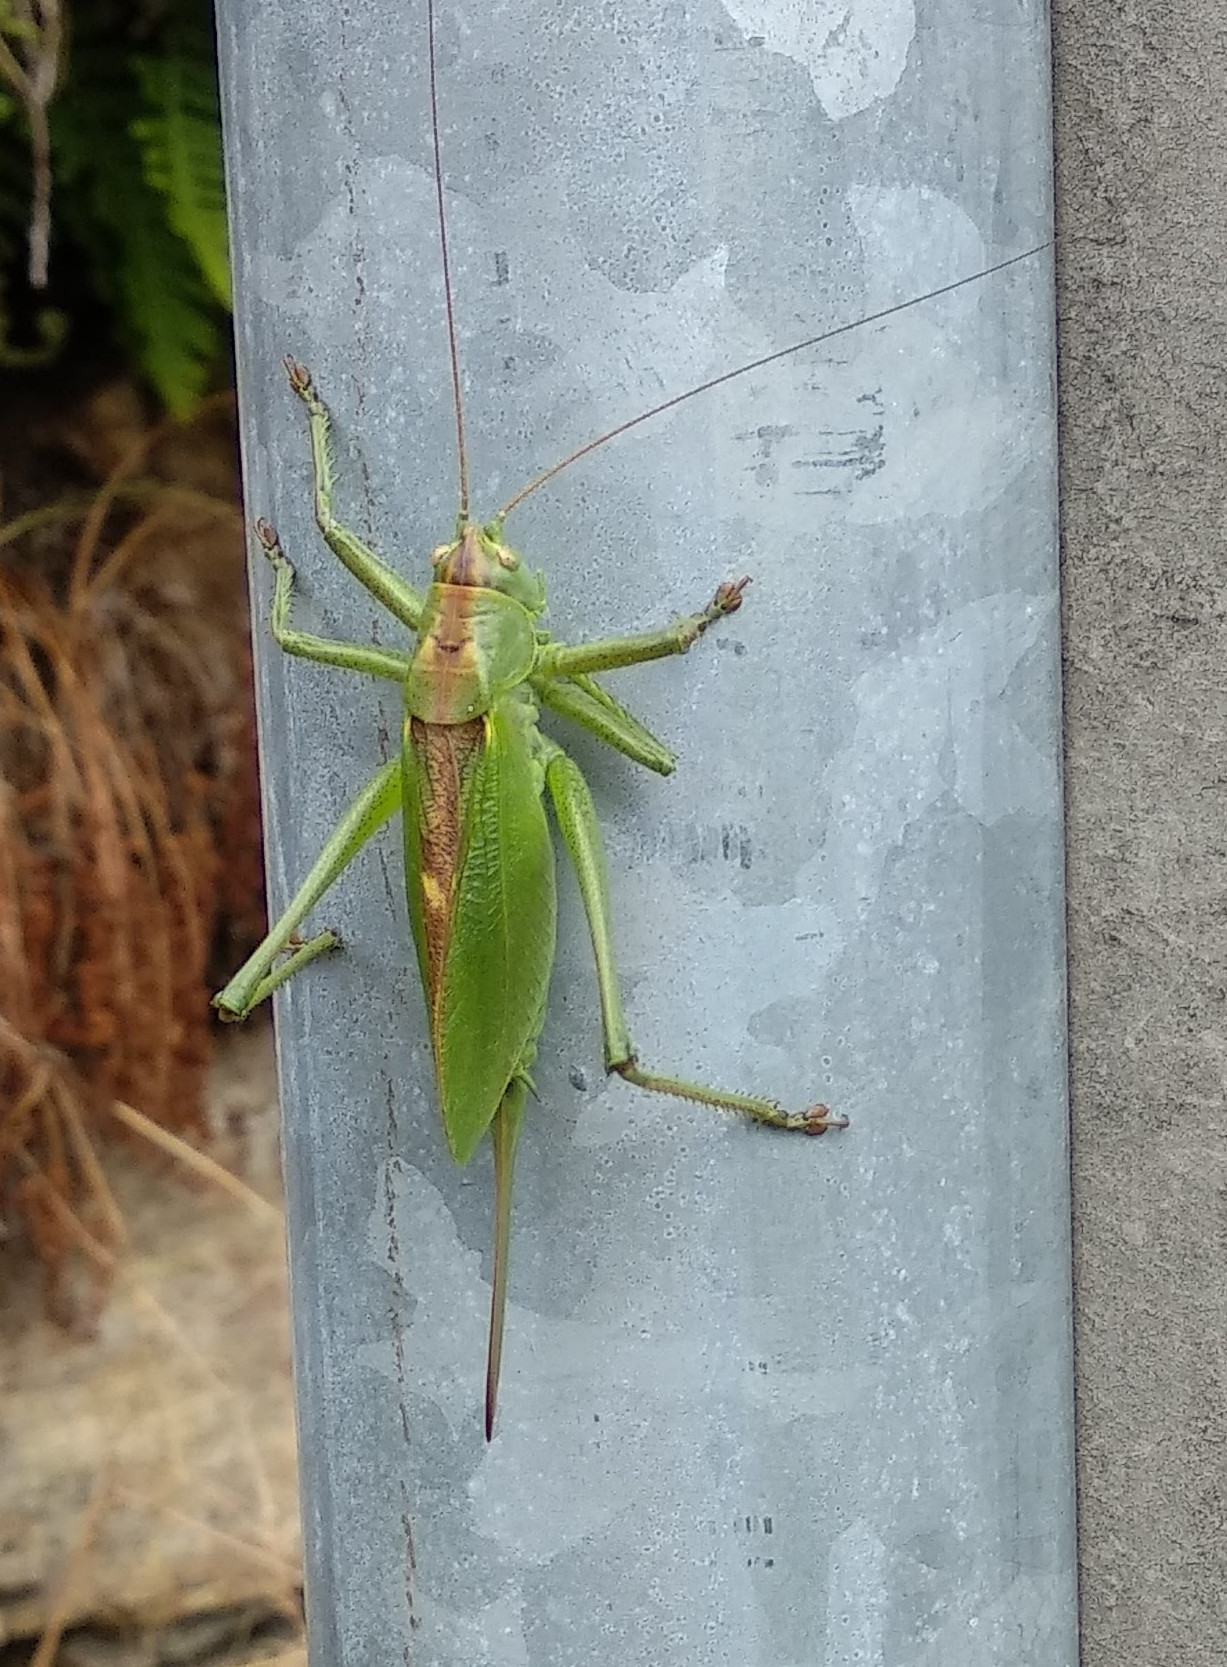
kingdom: Animalia
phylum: Arthropoda
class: Insecta
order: Orthoptera
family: Tettigoniidae
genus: Tettigonia
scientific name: Tettigonia cantans
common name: Upland green bush-cricket
